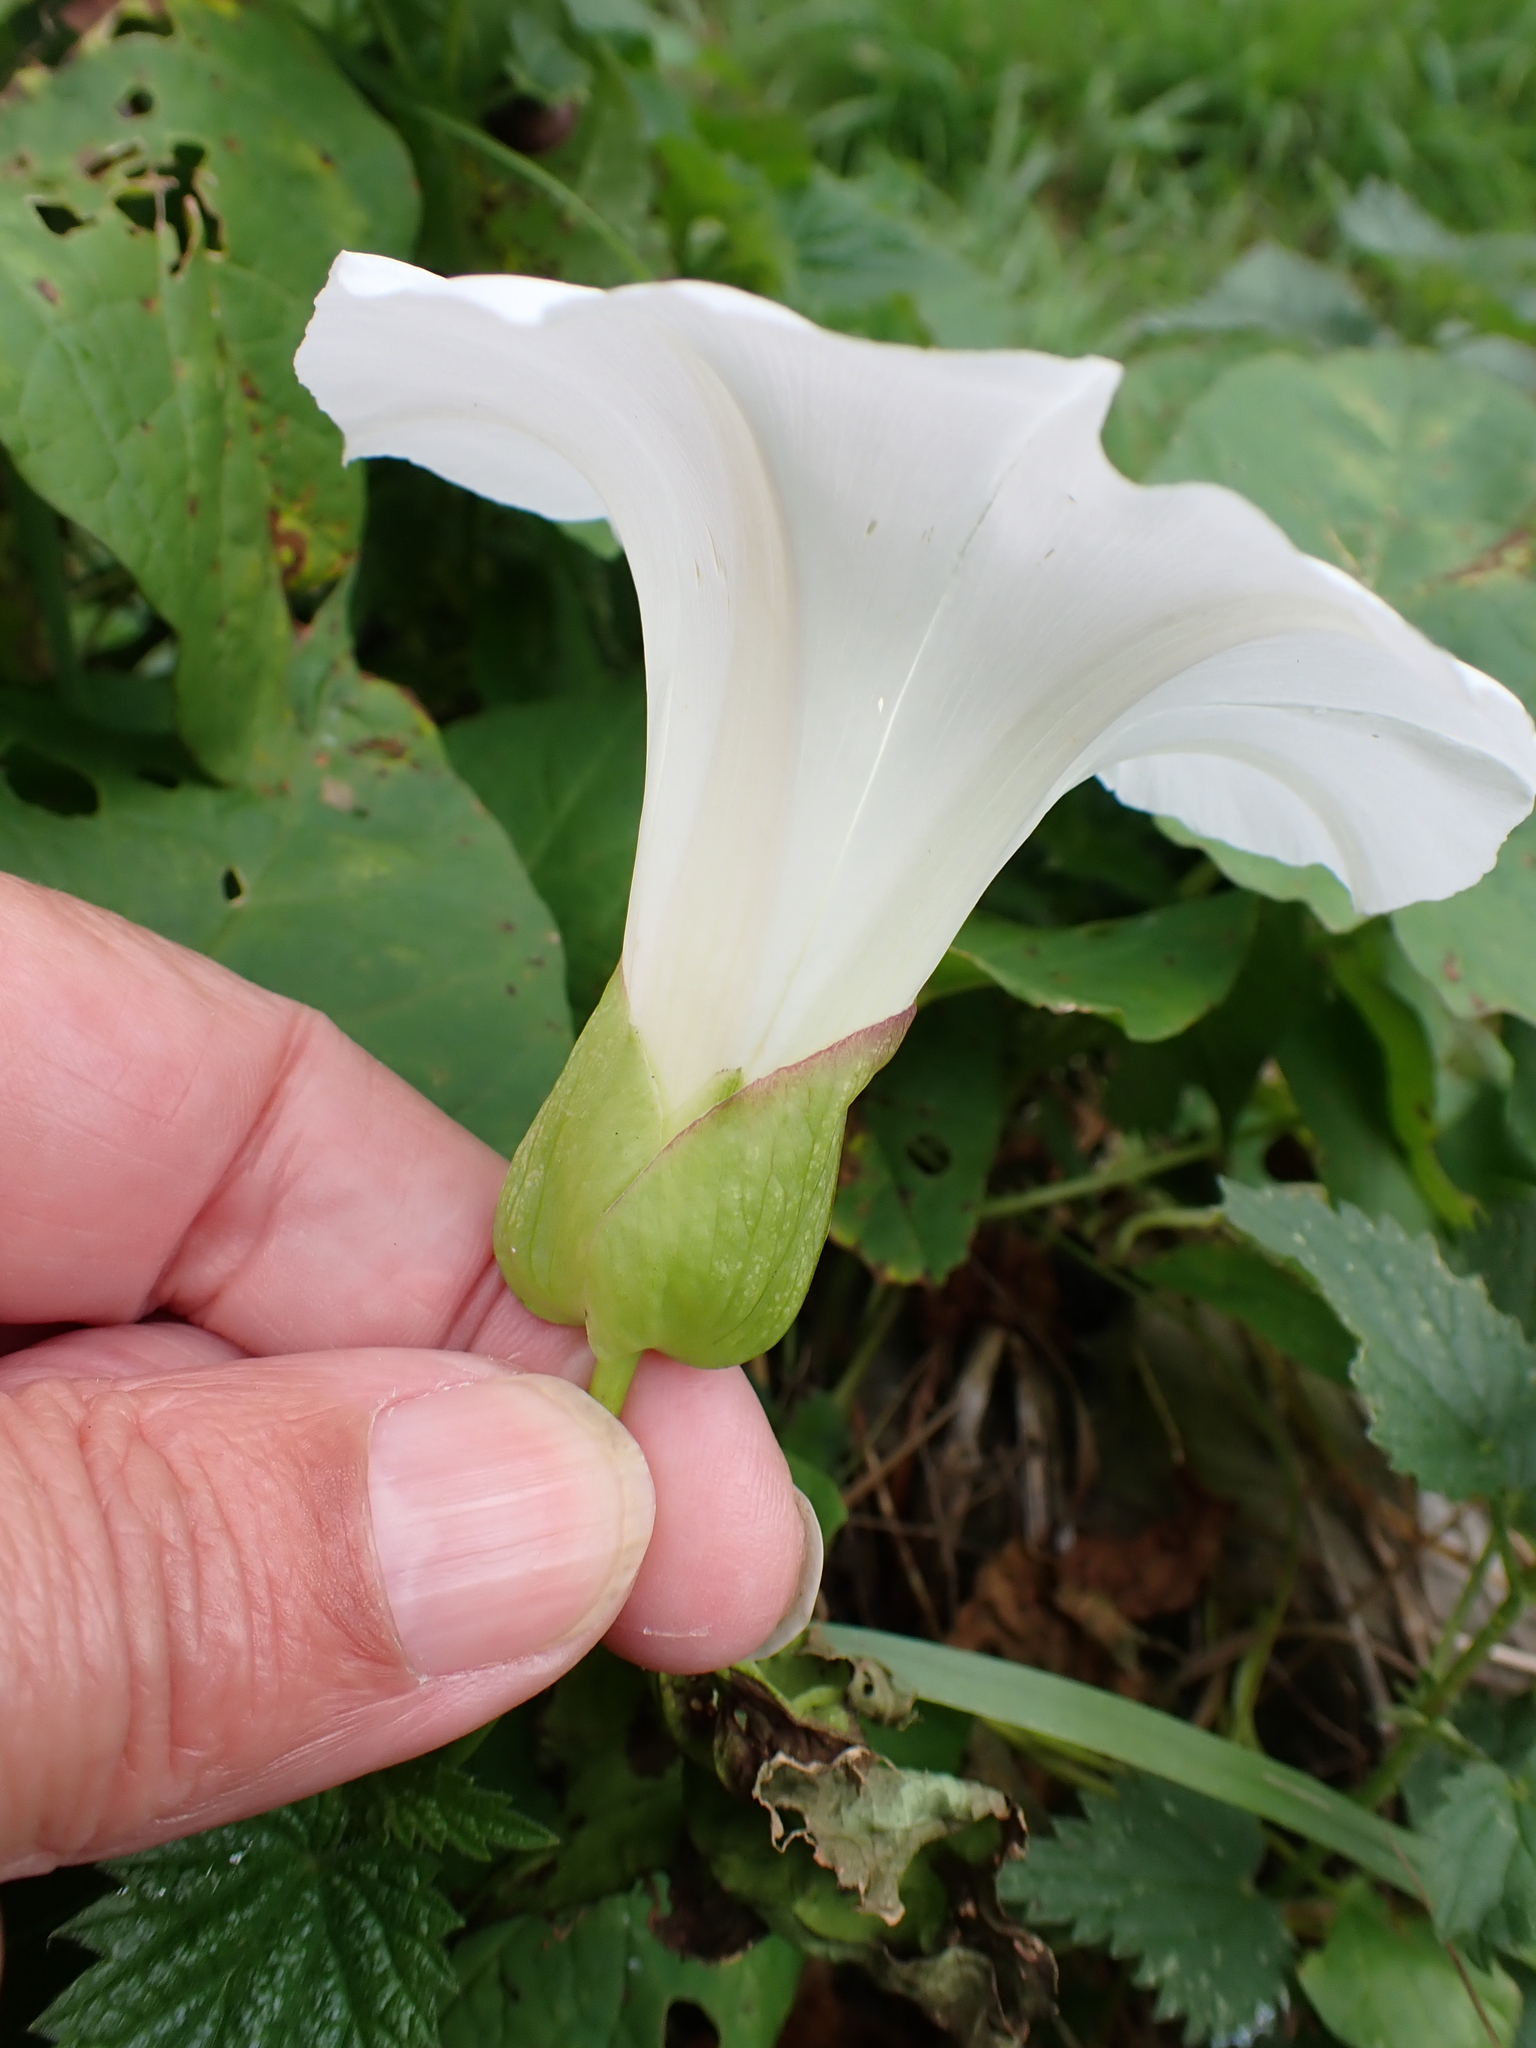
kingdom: Plantae
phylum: Tracheophyta
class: Magnoliopsida
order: Solanales
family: Convolvulaceae
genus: Calystegia
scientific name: Calystegia silvatica
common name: Large bindweed
